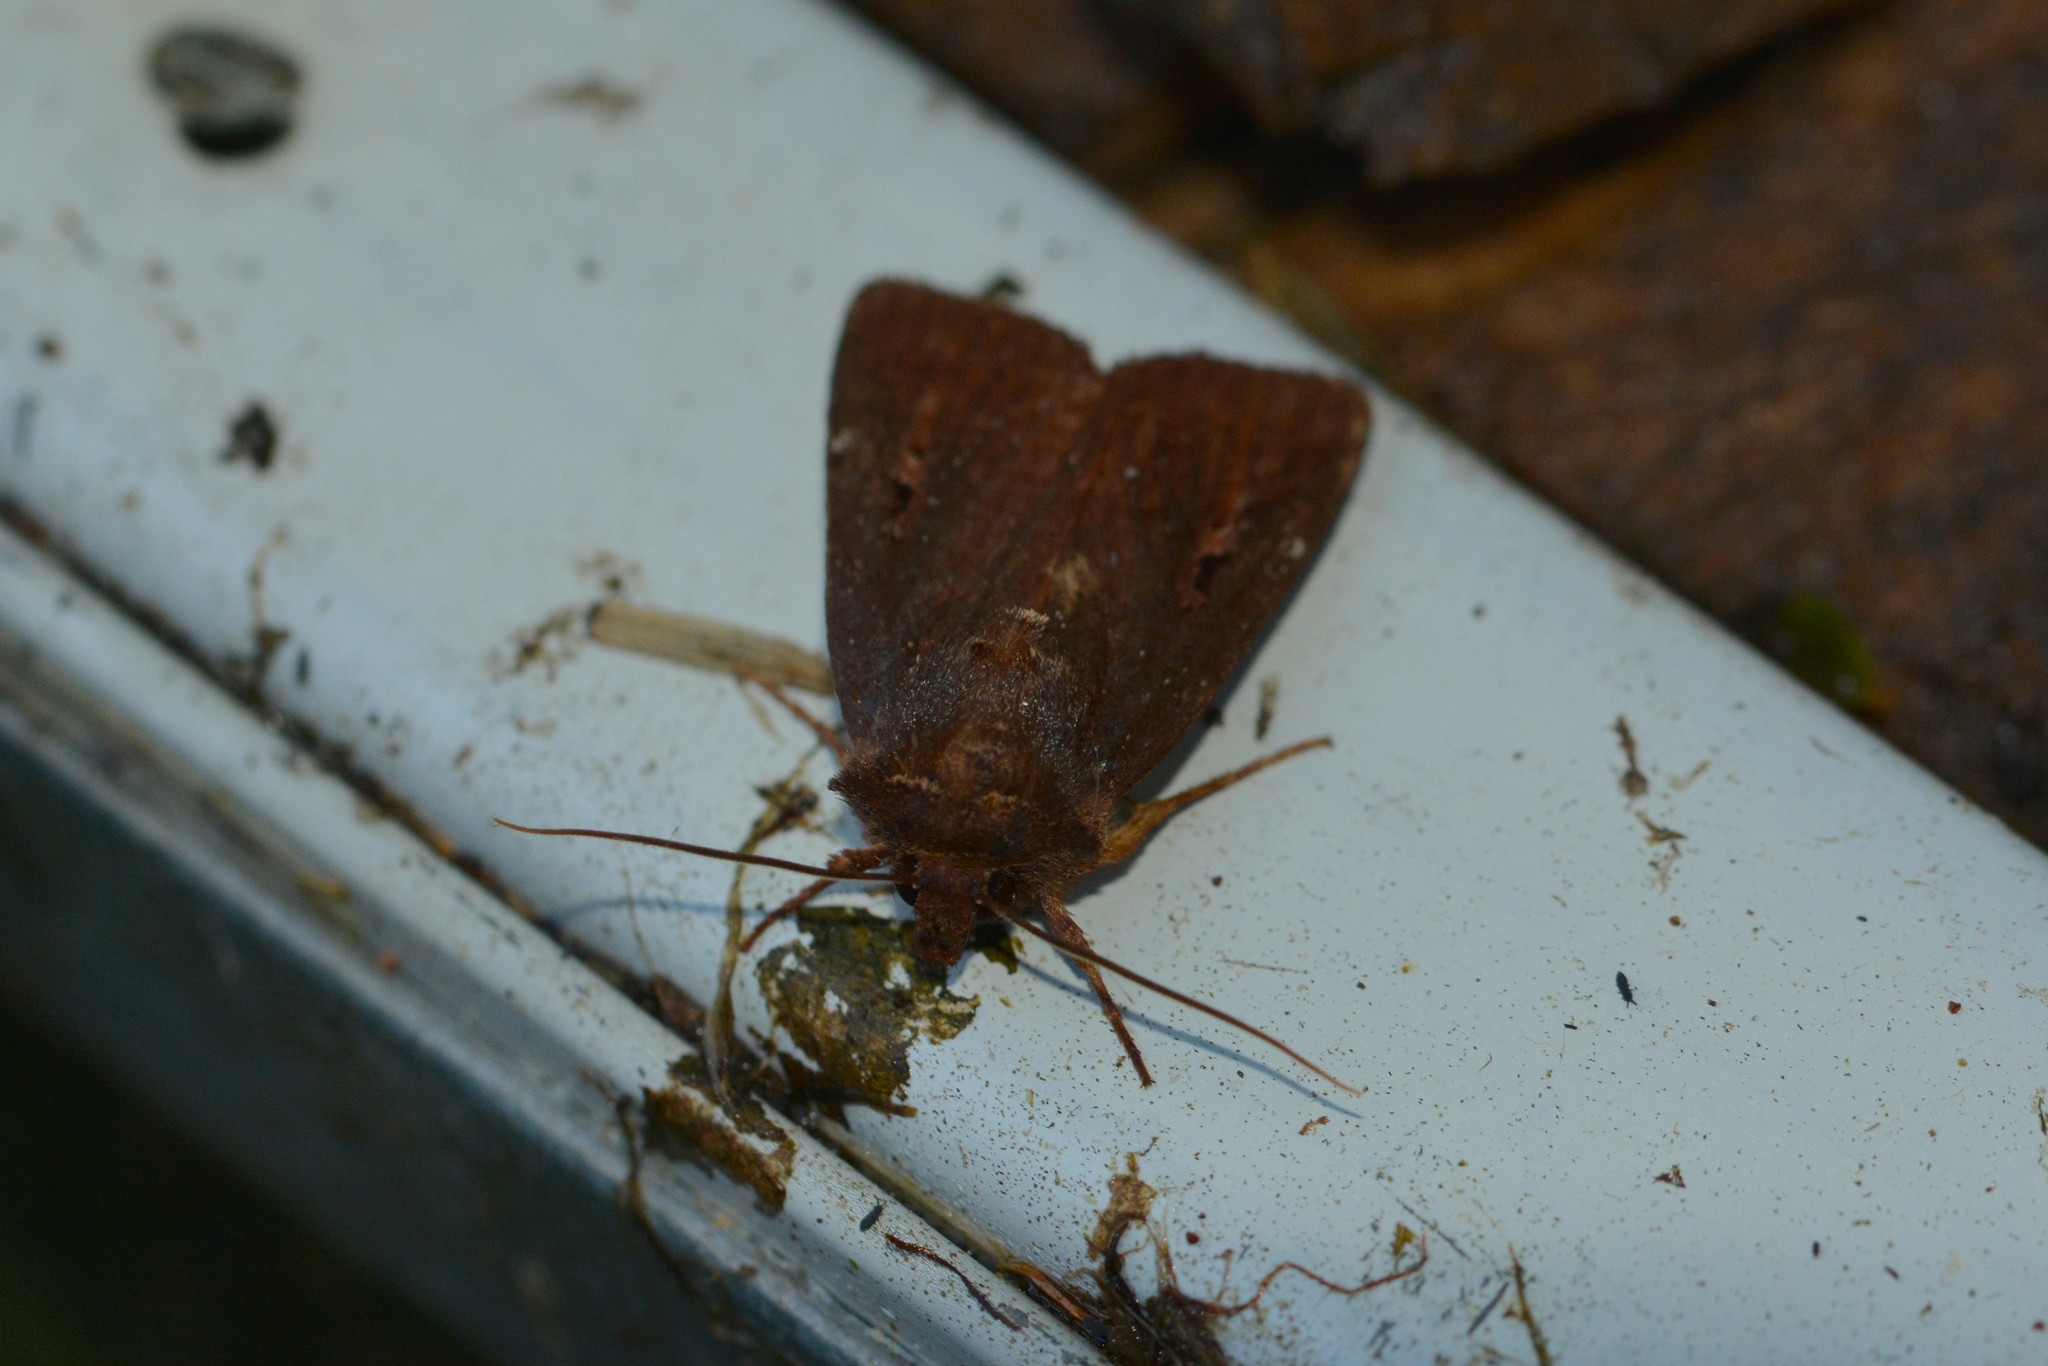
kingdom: Animalia
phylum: Arthropoda
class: Insecta
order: Lepidoptera
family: Noctuidae
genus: Austramathes
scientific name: Austramathes purpurea
